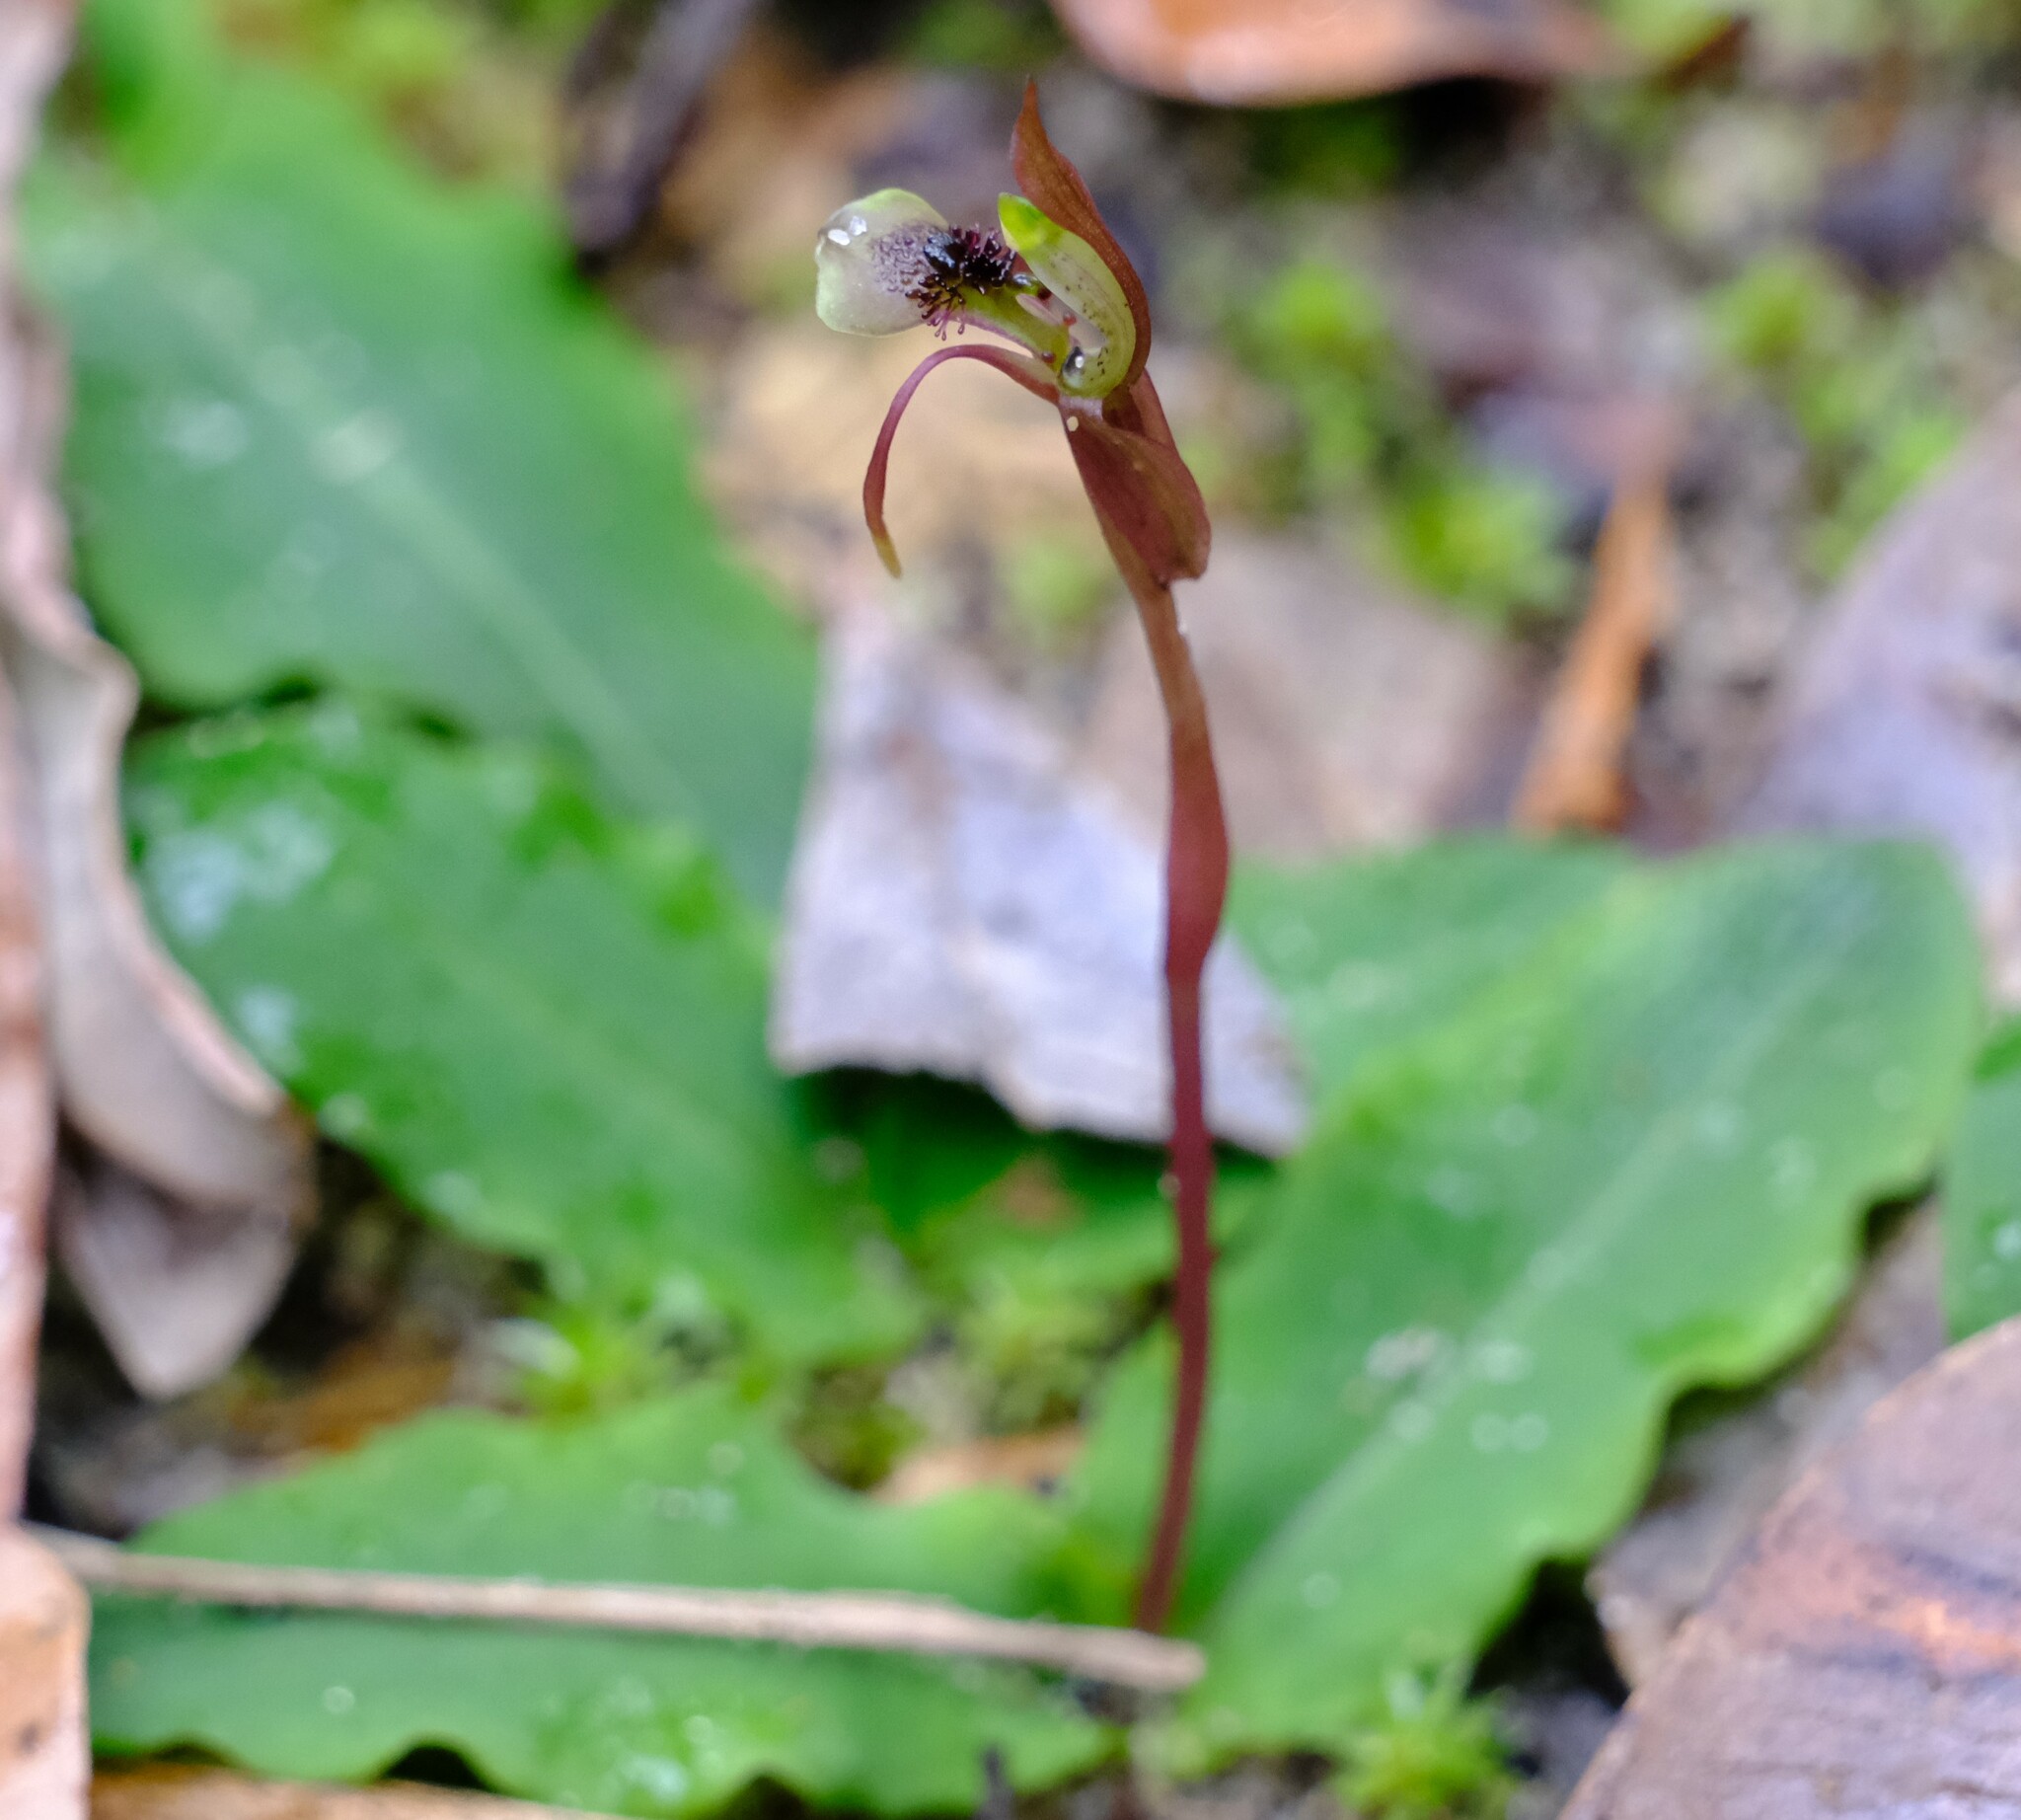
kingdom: Plantae
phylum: Tracheophyta
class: Liliopsida
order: Asparagales
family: Orchidaceae
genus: Chiloglottis
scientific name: Chiloglottis sylvestris
